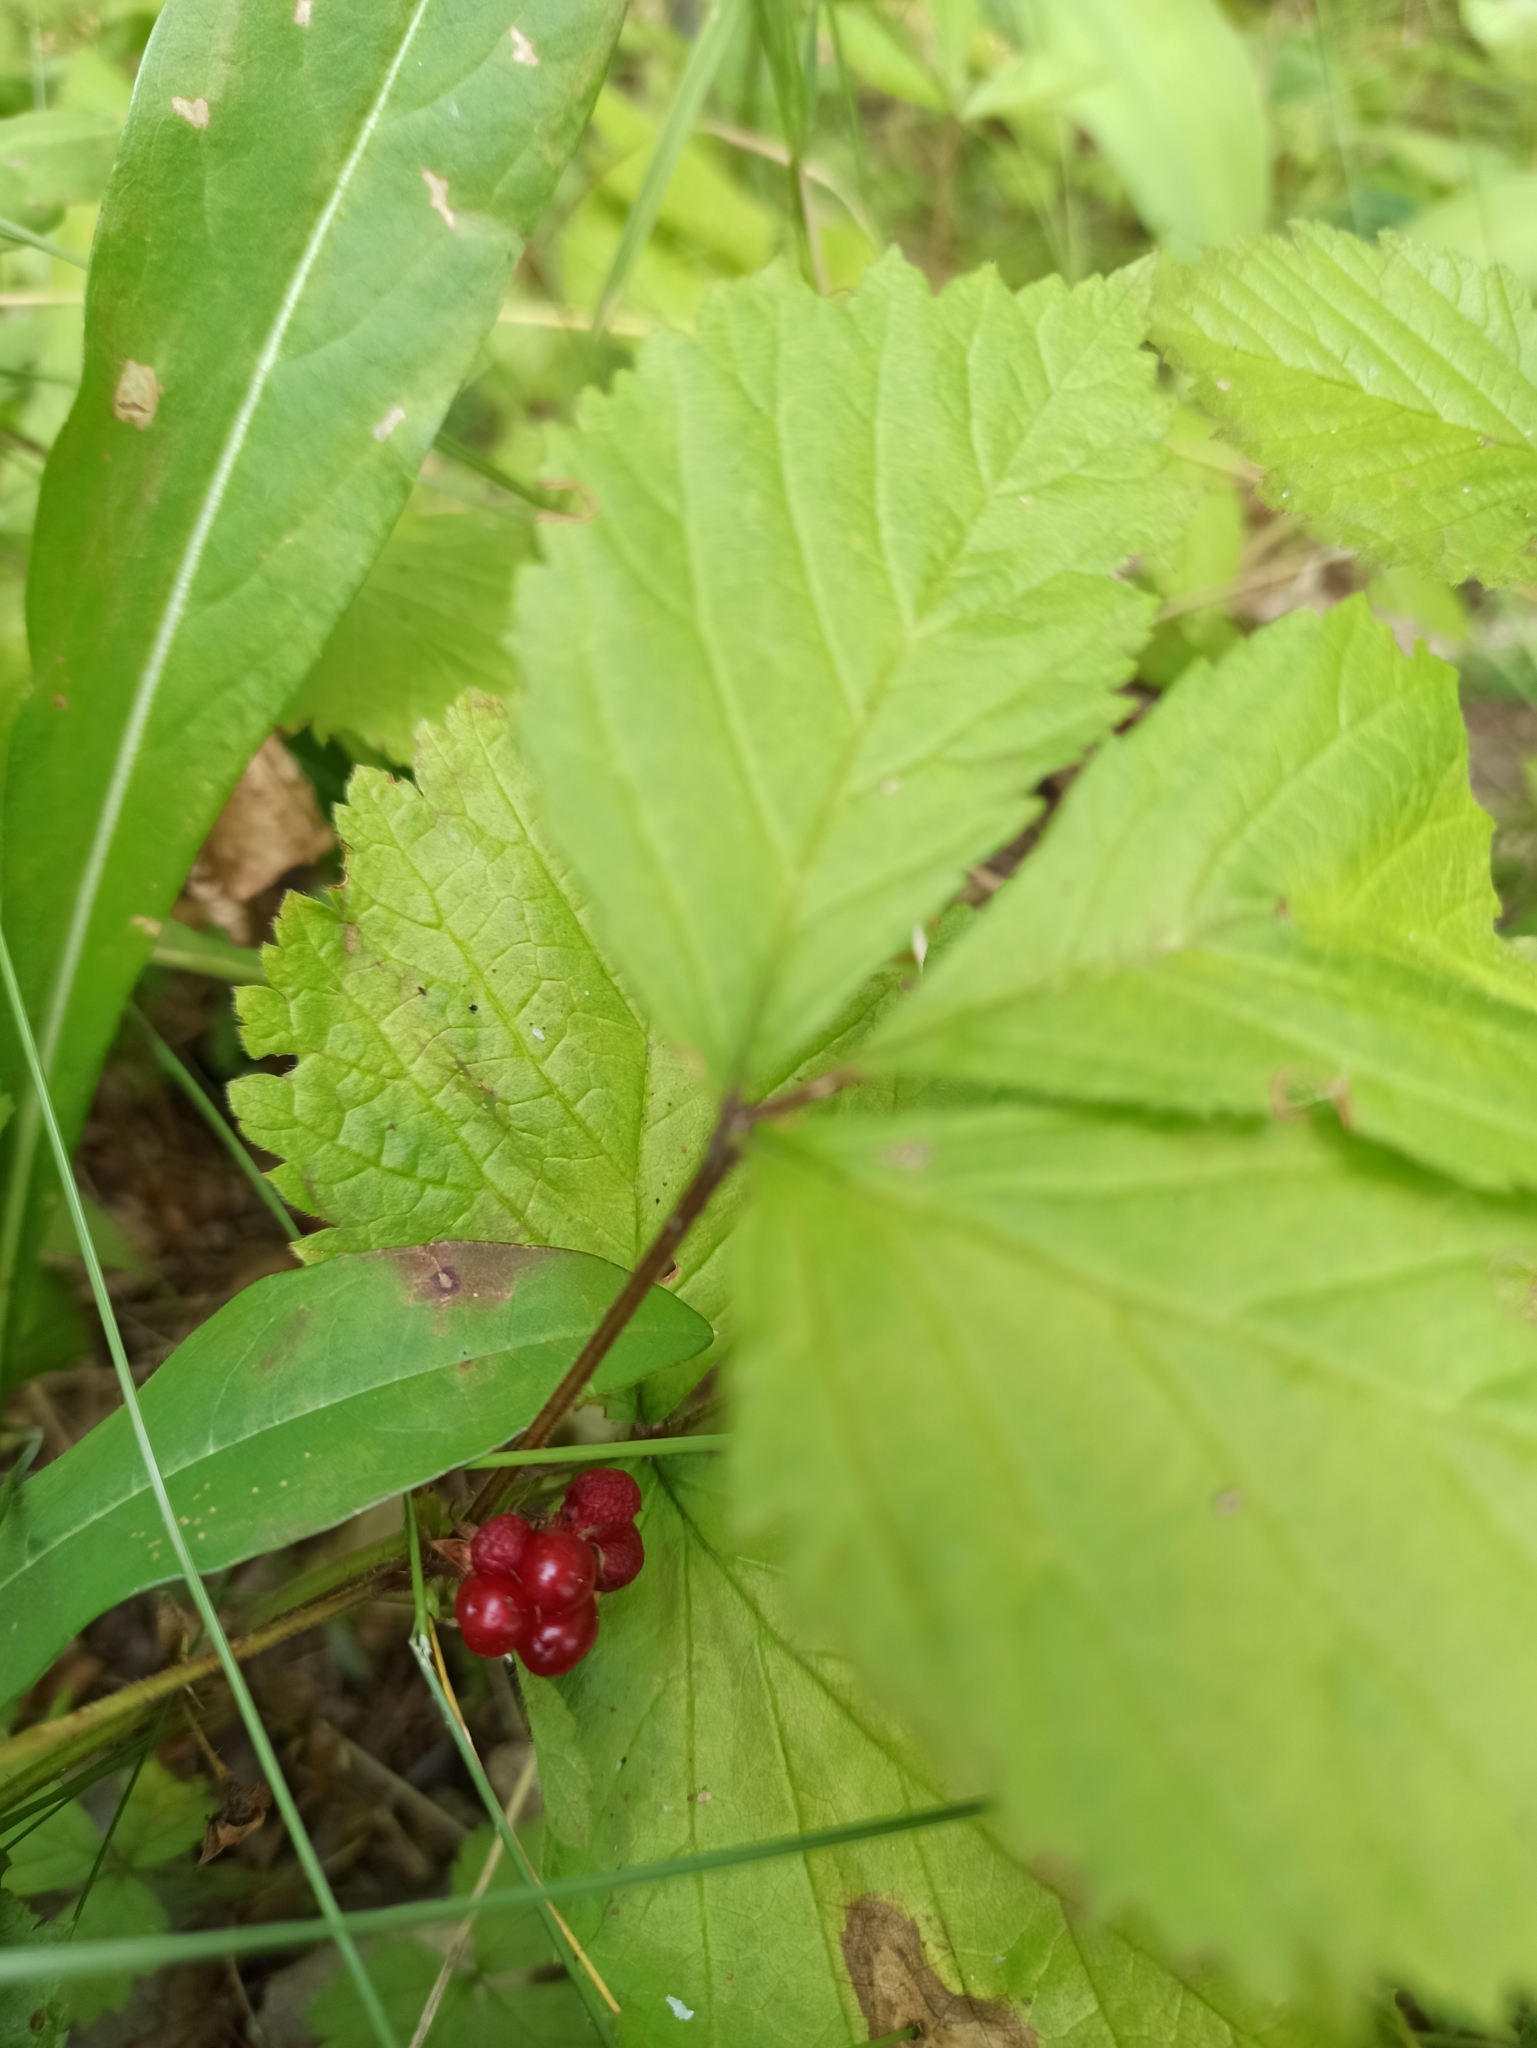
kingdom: Plantae
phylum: Tracheophyta
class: Magnoliopsida
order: Rosales
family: Rosaceae
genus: Rubus
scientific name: Rubus saxatilis
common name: Stone bramble
